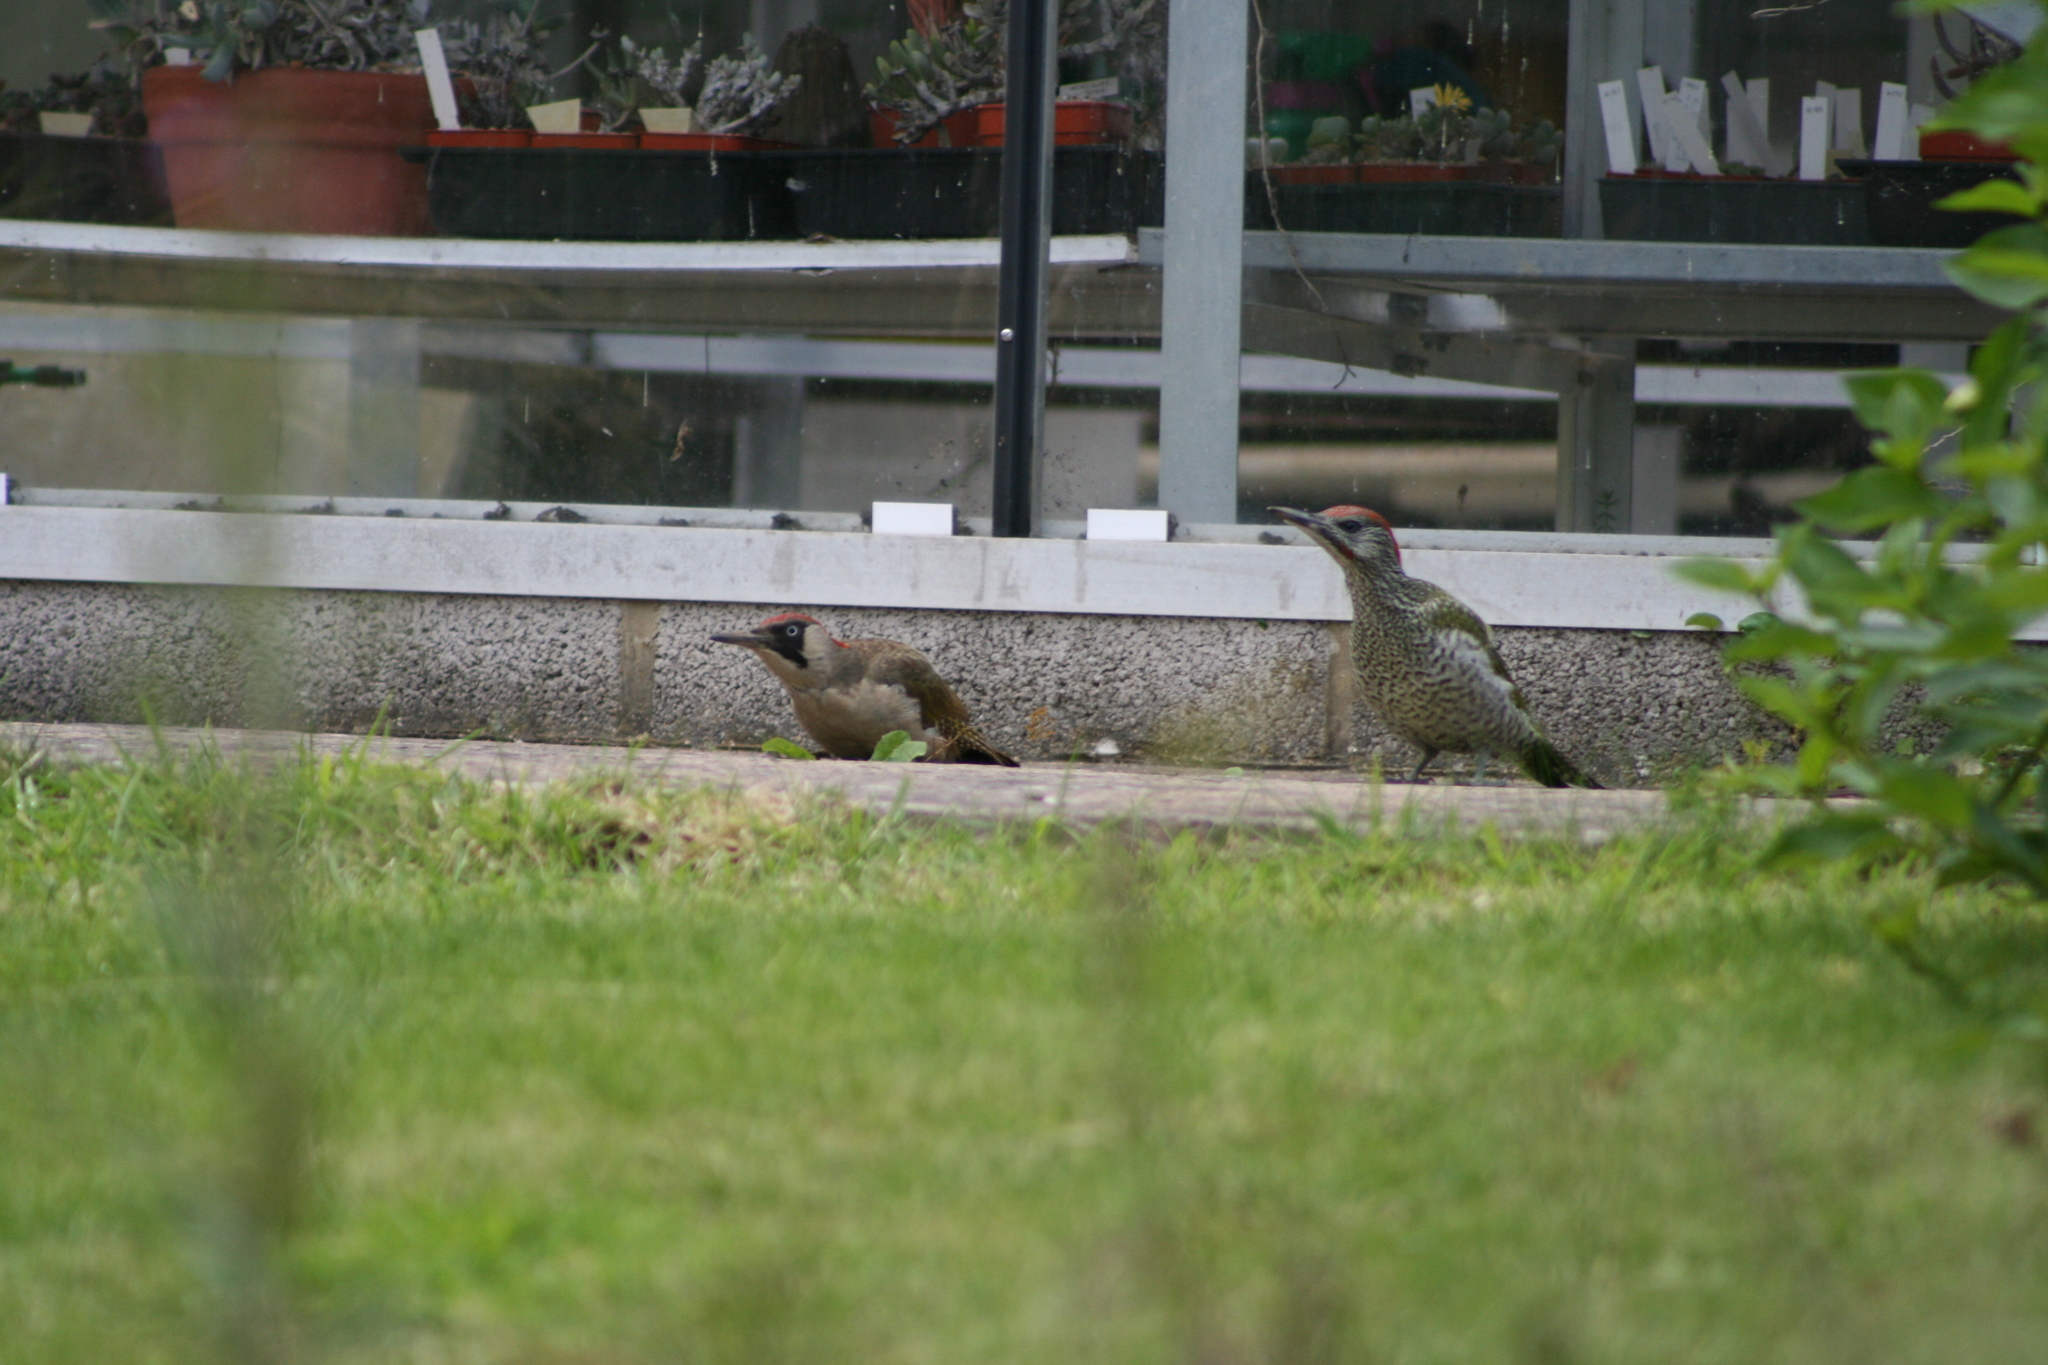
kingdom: Animalia
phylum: Chordata
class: Aves
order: Piciformes
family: Picidae
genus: Picus
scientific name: Picus viridis
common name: European green woodpecker
